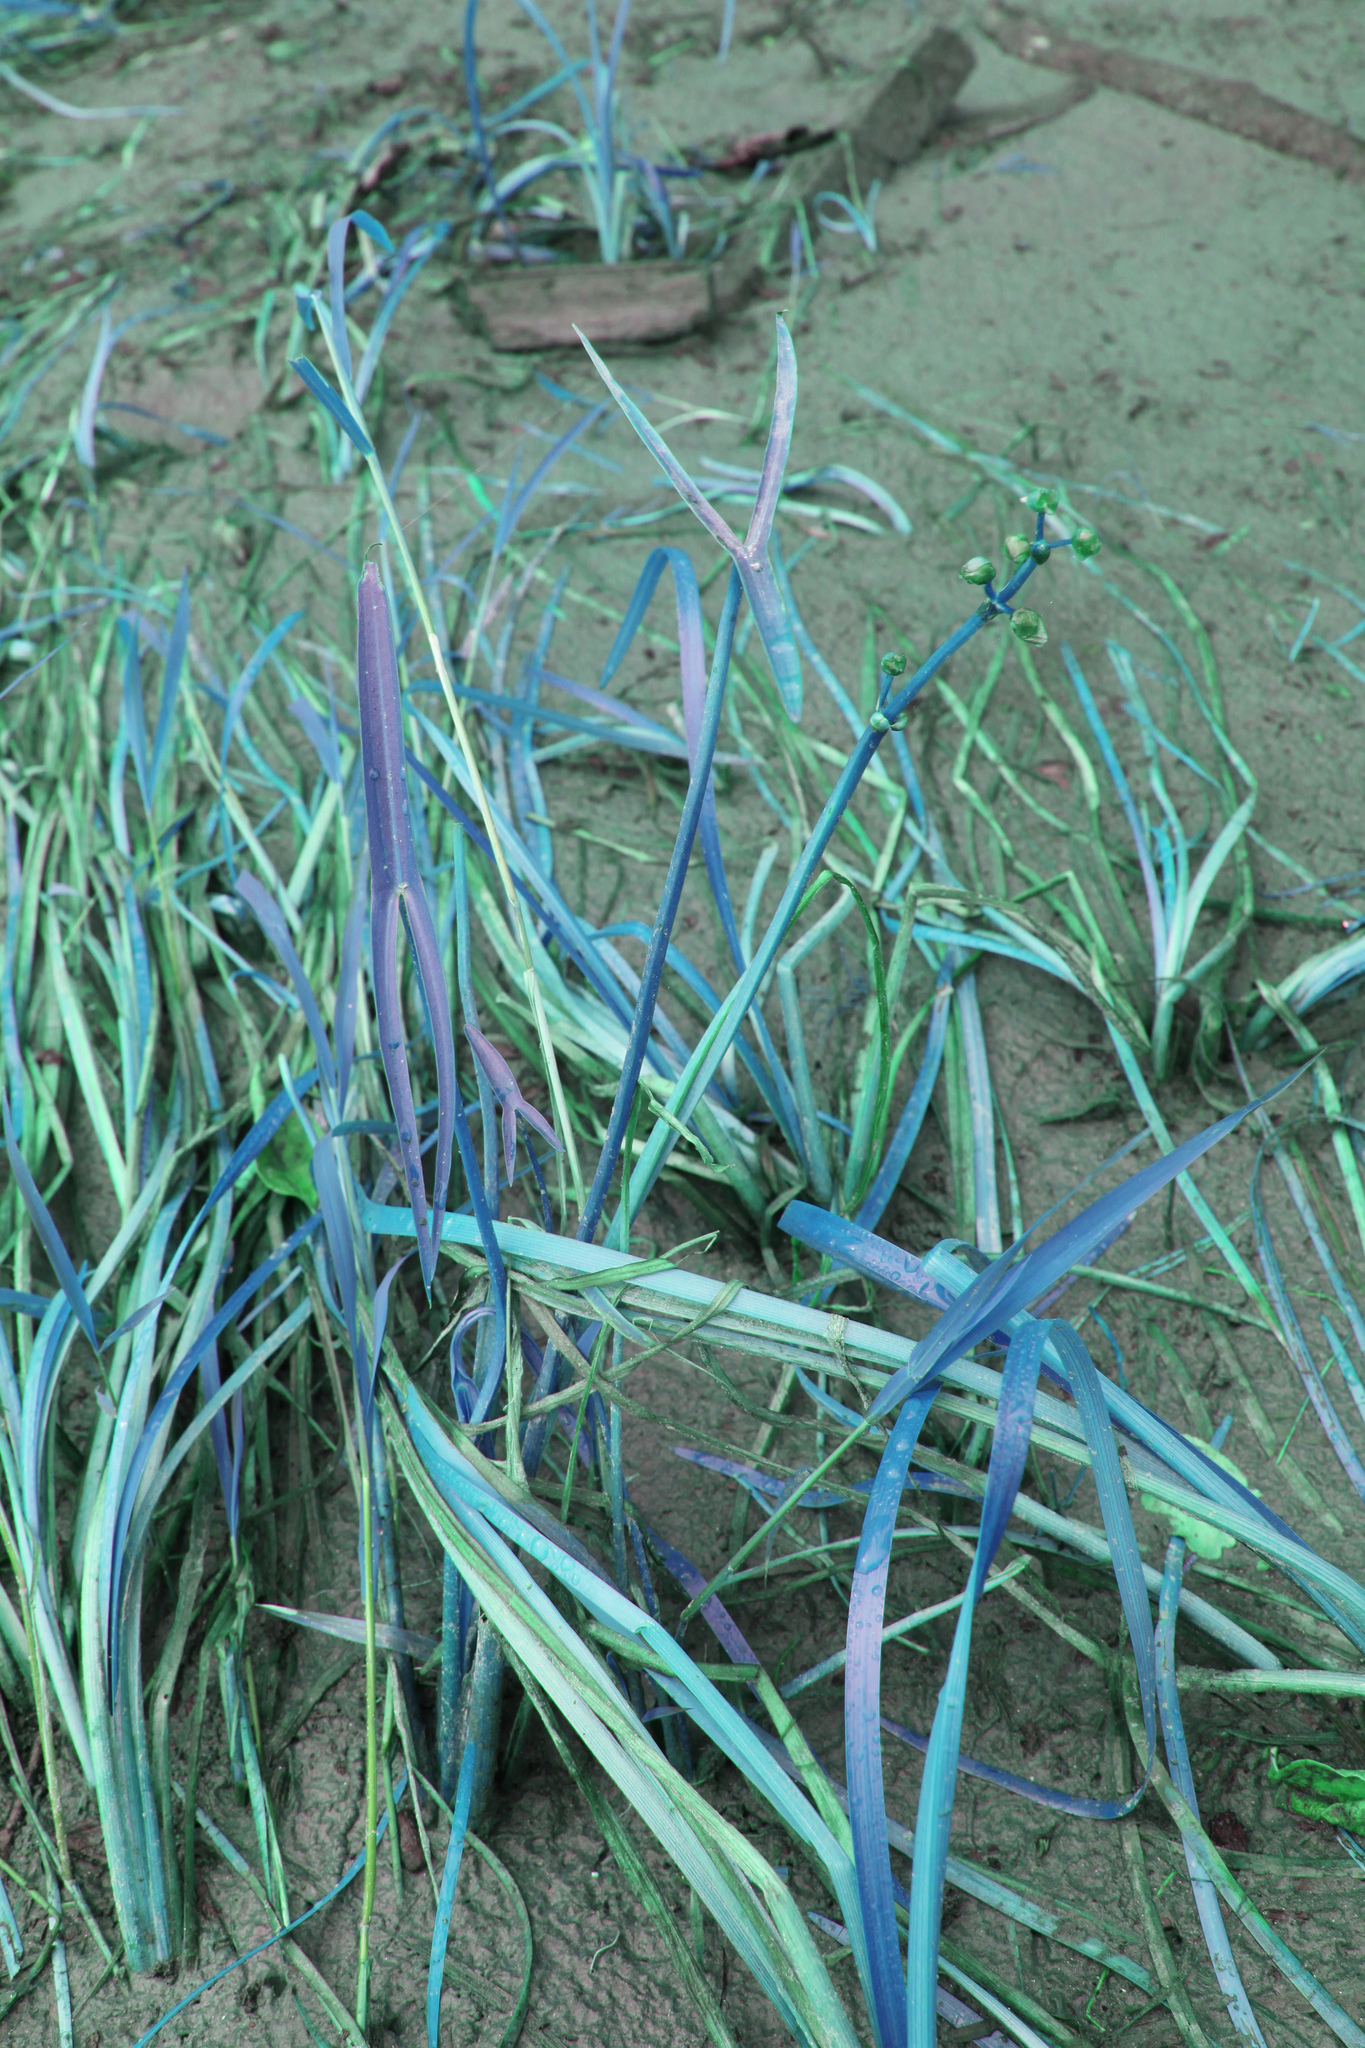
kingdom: Plantae
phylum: Tracheophyta
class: Liliopsida
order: Alismatales
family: Alismataceae
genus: Sagittaria
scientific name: Sagittaria latifolia
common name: Duck-potato
